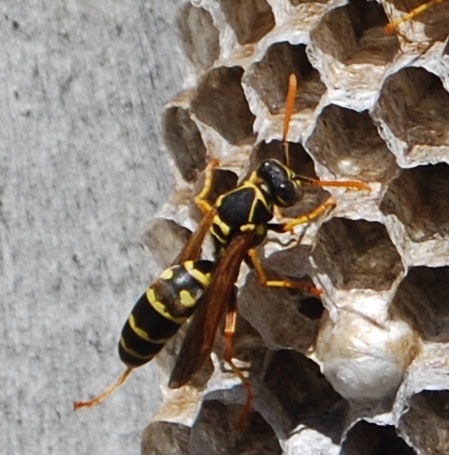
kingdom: Animalia
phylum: Arthropoda
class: Insecta
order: Hymenoptera
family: Eumenidae
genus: Polistes
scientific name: Polistes chinensis
